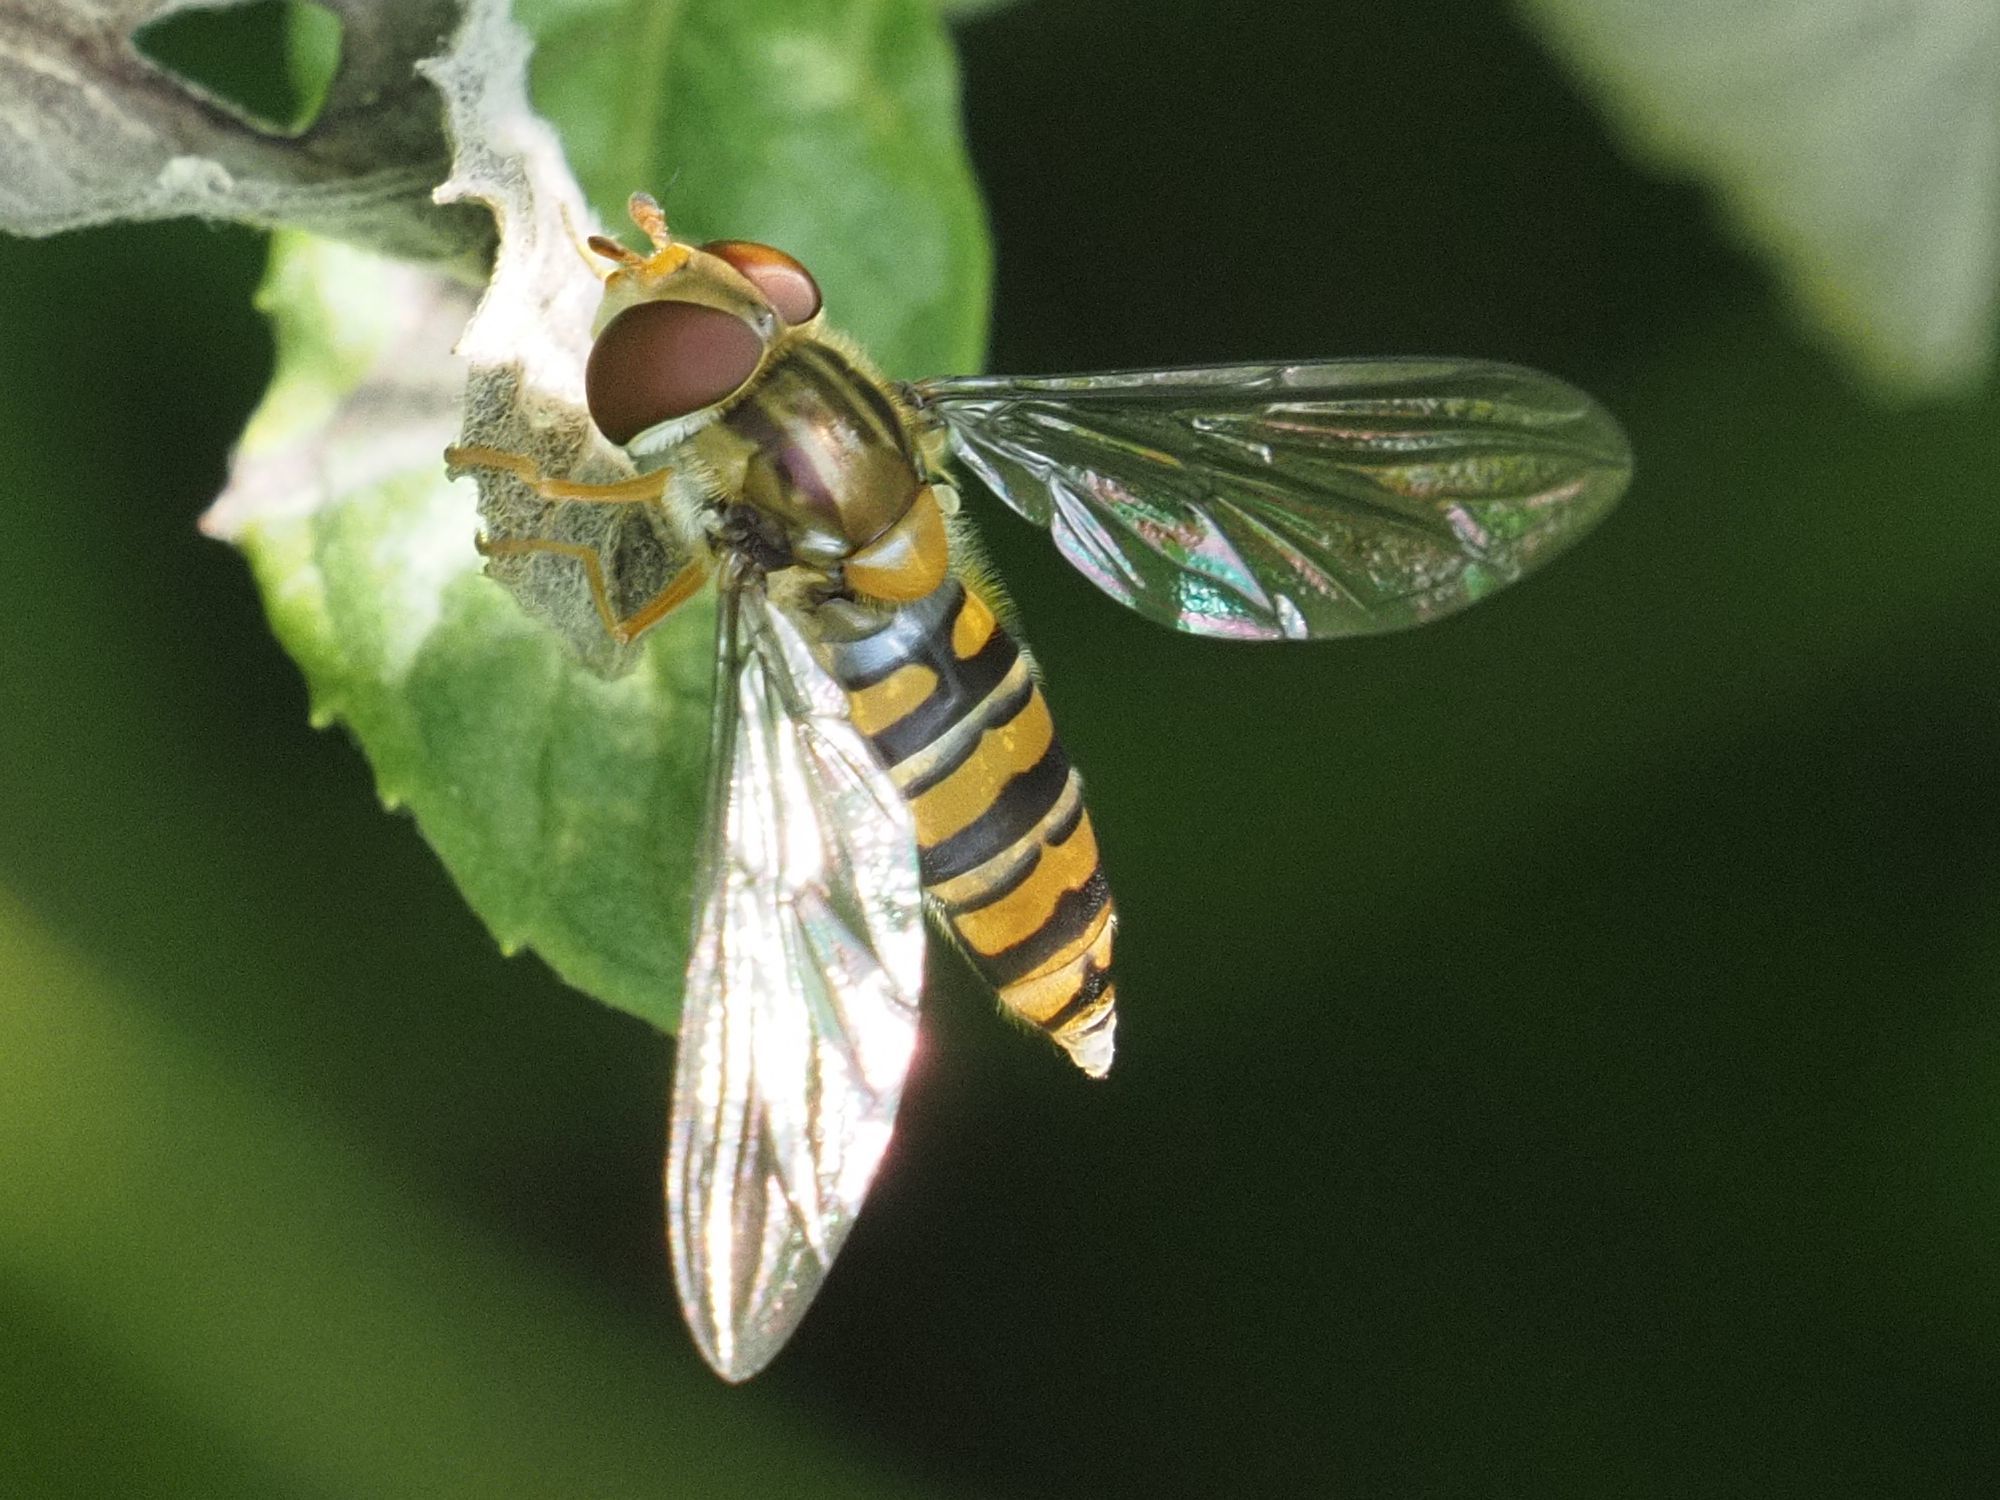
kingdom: Animalia
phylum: Arthropoda
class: Insecta
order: Diptera
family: Syrphidae
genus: Episyrphus
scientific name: Episyrphus balteatus
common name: Marmalade hoverfly
